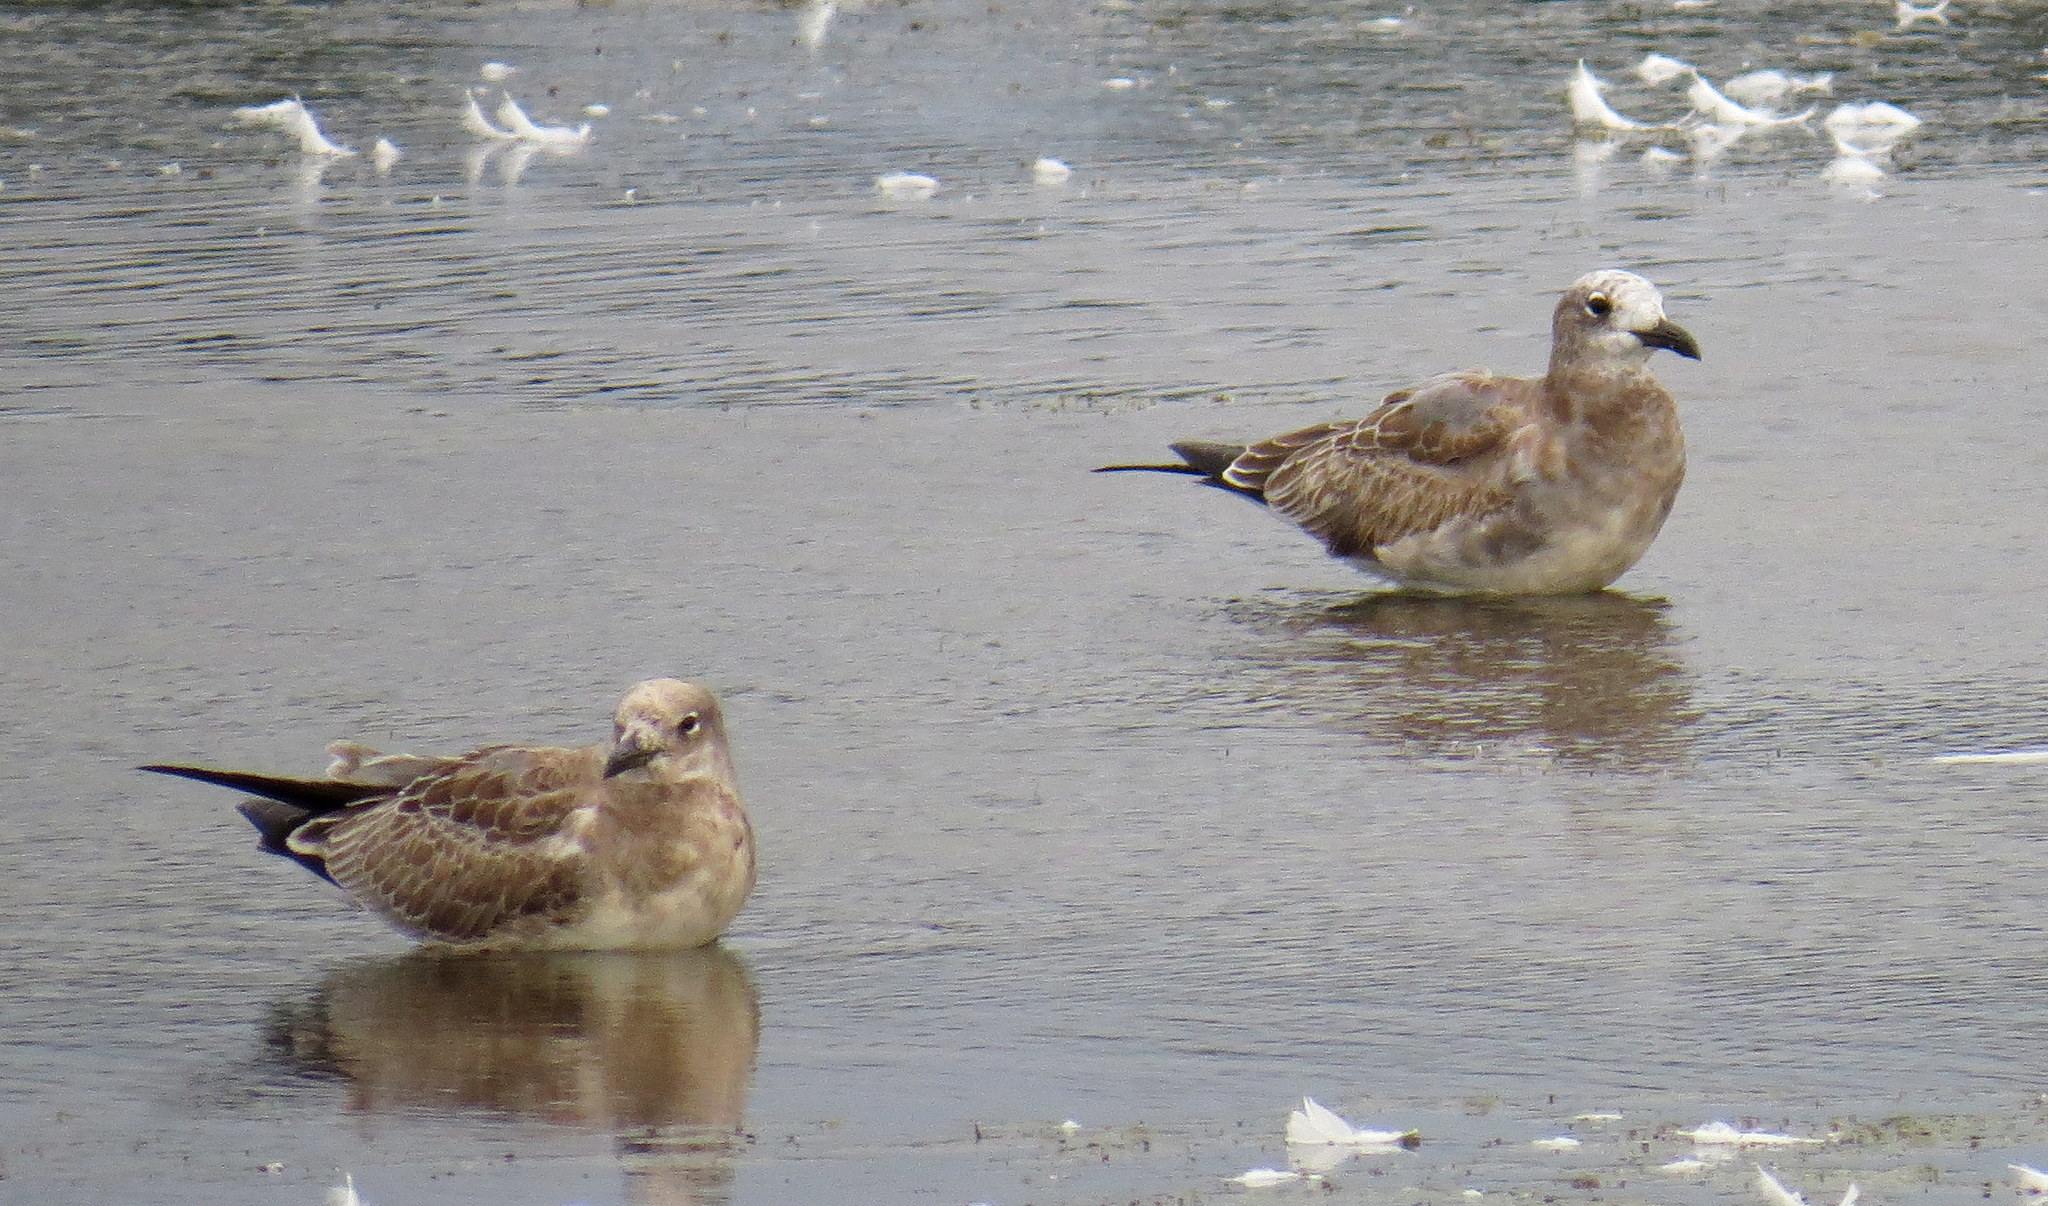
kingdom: Animalia
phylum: Chordata
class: Aves
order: Charadriiformes
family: Laridae
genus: Leucophaeus
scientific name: Leucophaeus atricilla
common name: Laughing gull
